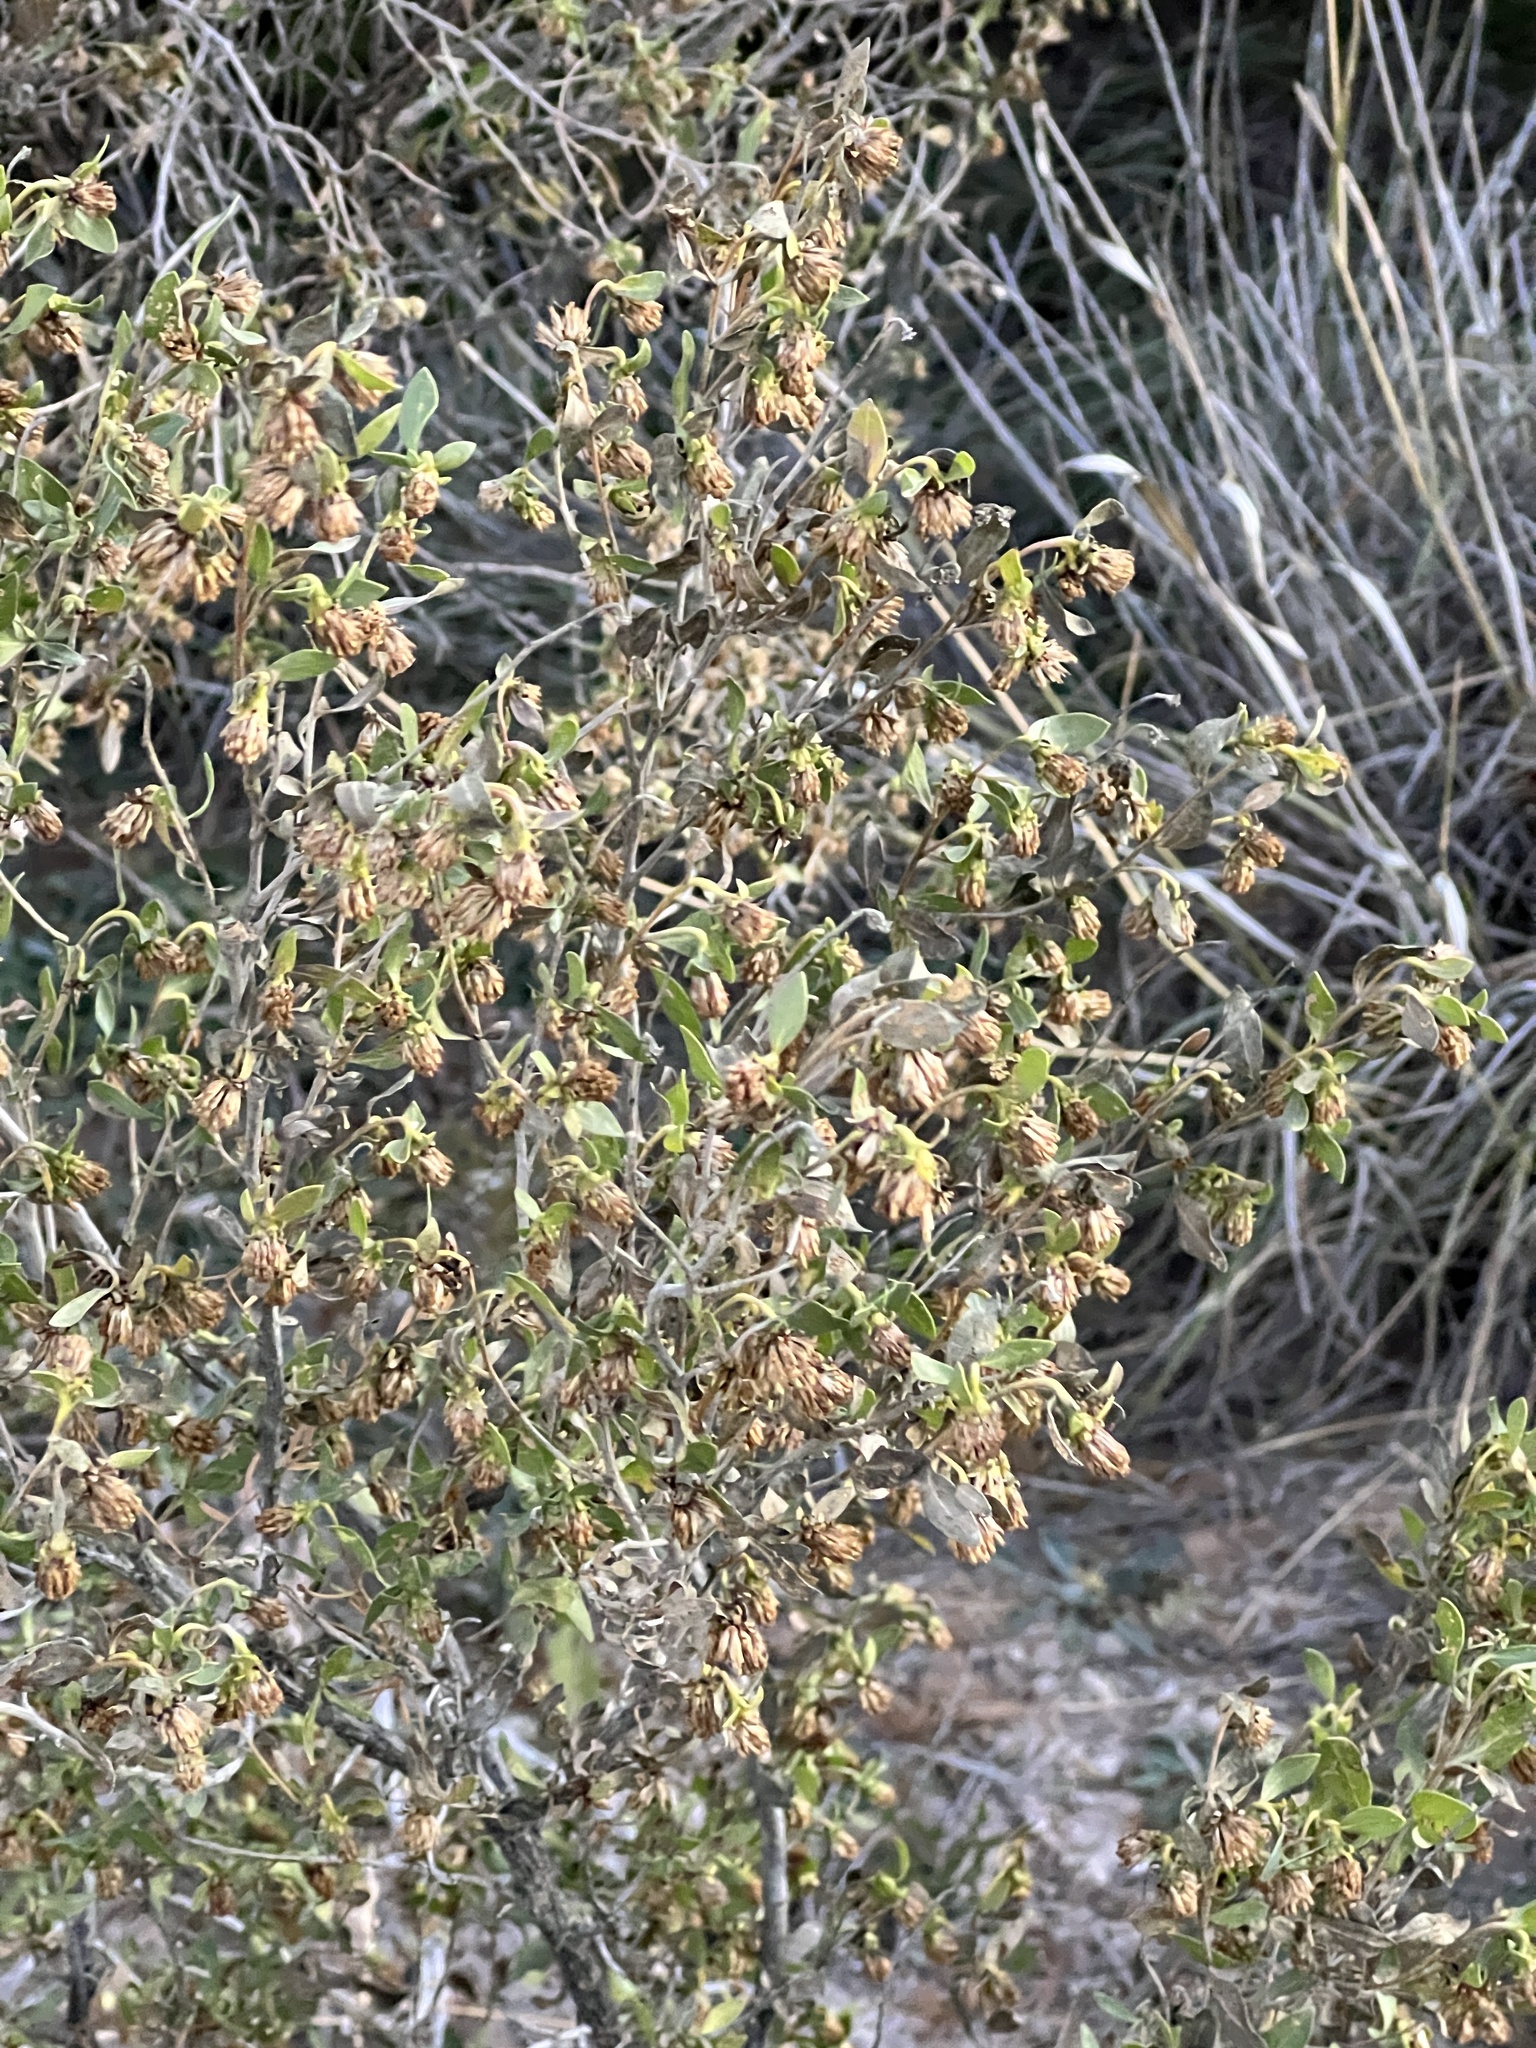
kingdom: Plantae
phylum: Tracheophyta
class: Magnoliopsida
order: Asterales
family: Asteraceae
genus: Flourensia
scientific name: Flourensia cernua
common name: Varnishbush
